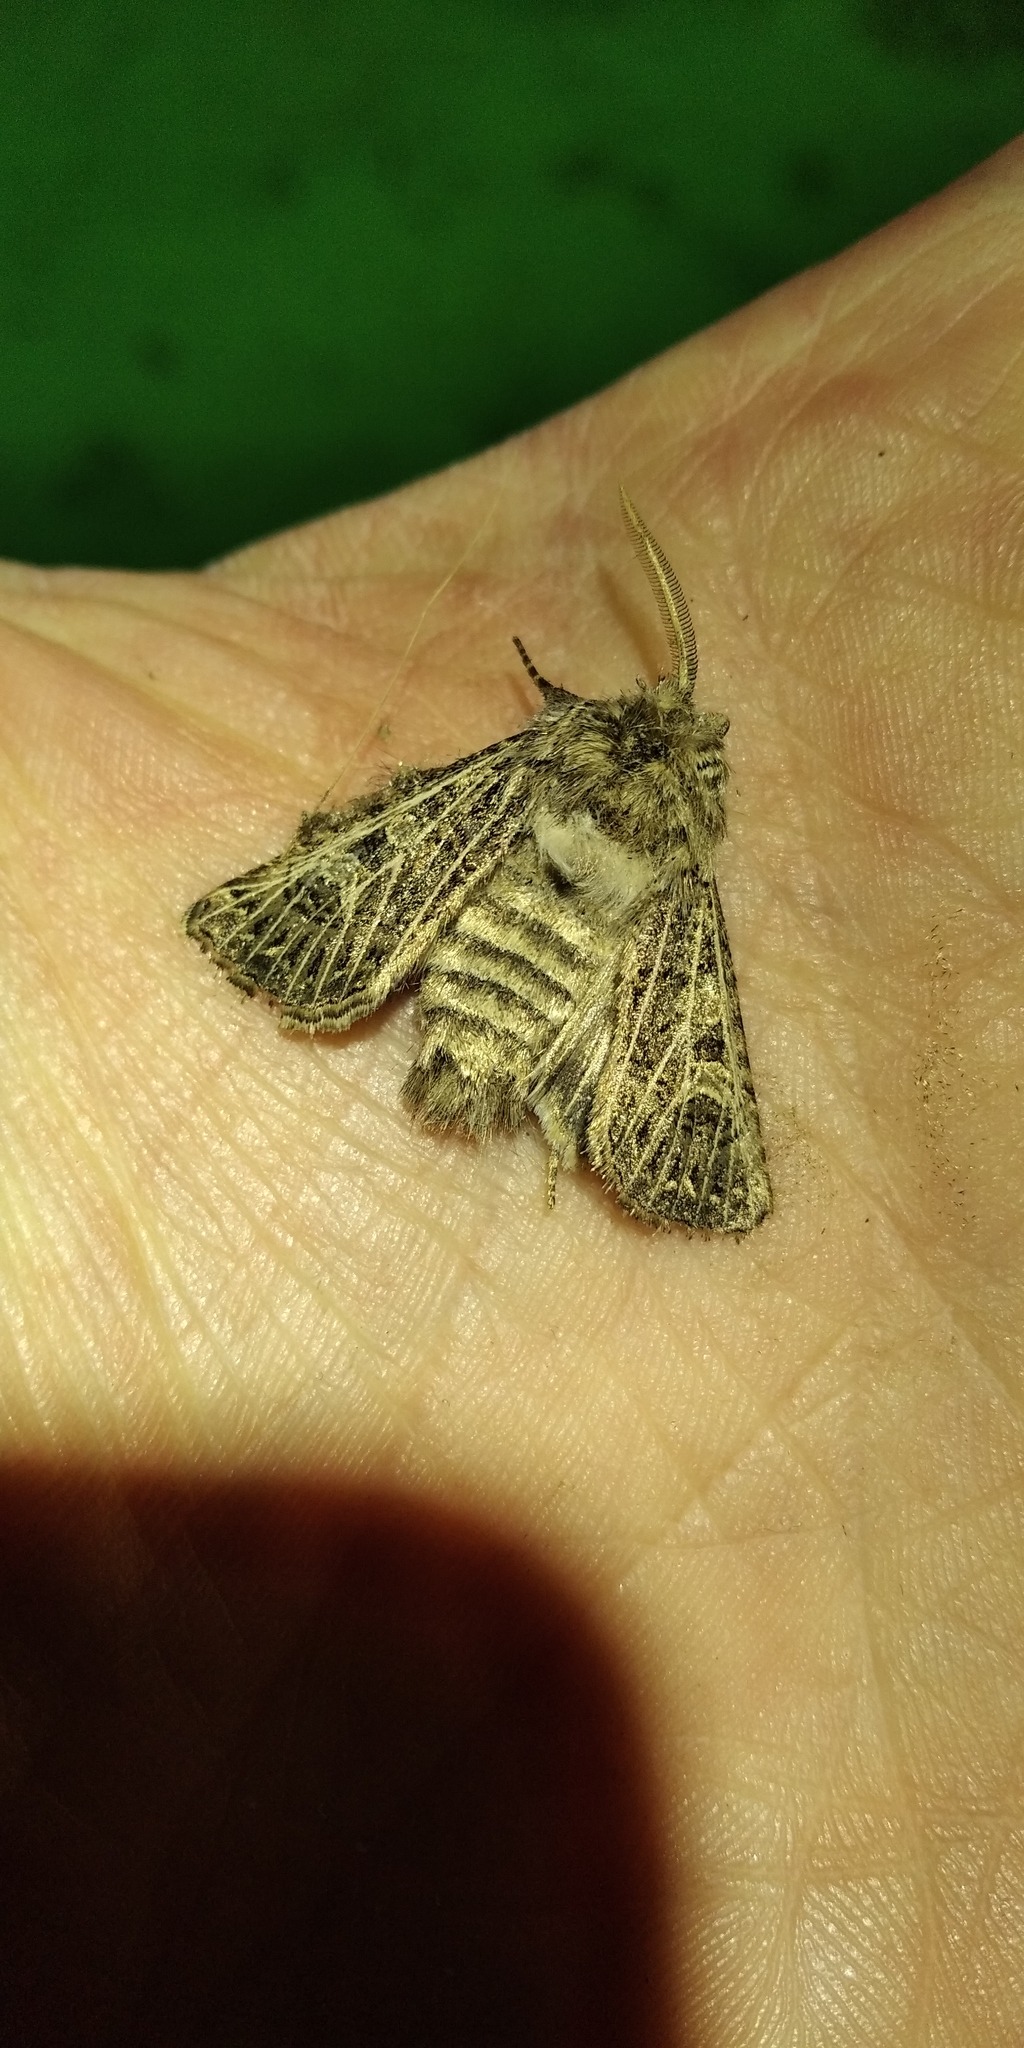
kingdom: Animalia
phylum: Arthropoda
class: Insecta
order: Lepidoptera
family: Noctuidae
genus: Tholera
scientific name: Tholera decimalis
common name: Feathered gothic
